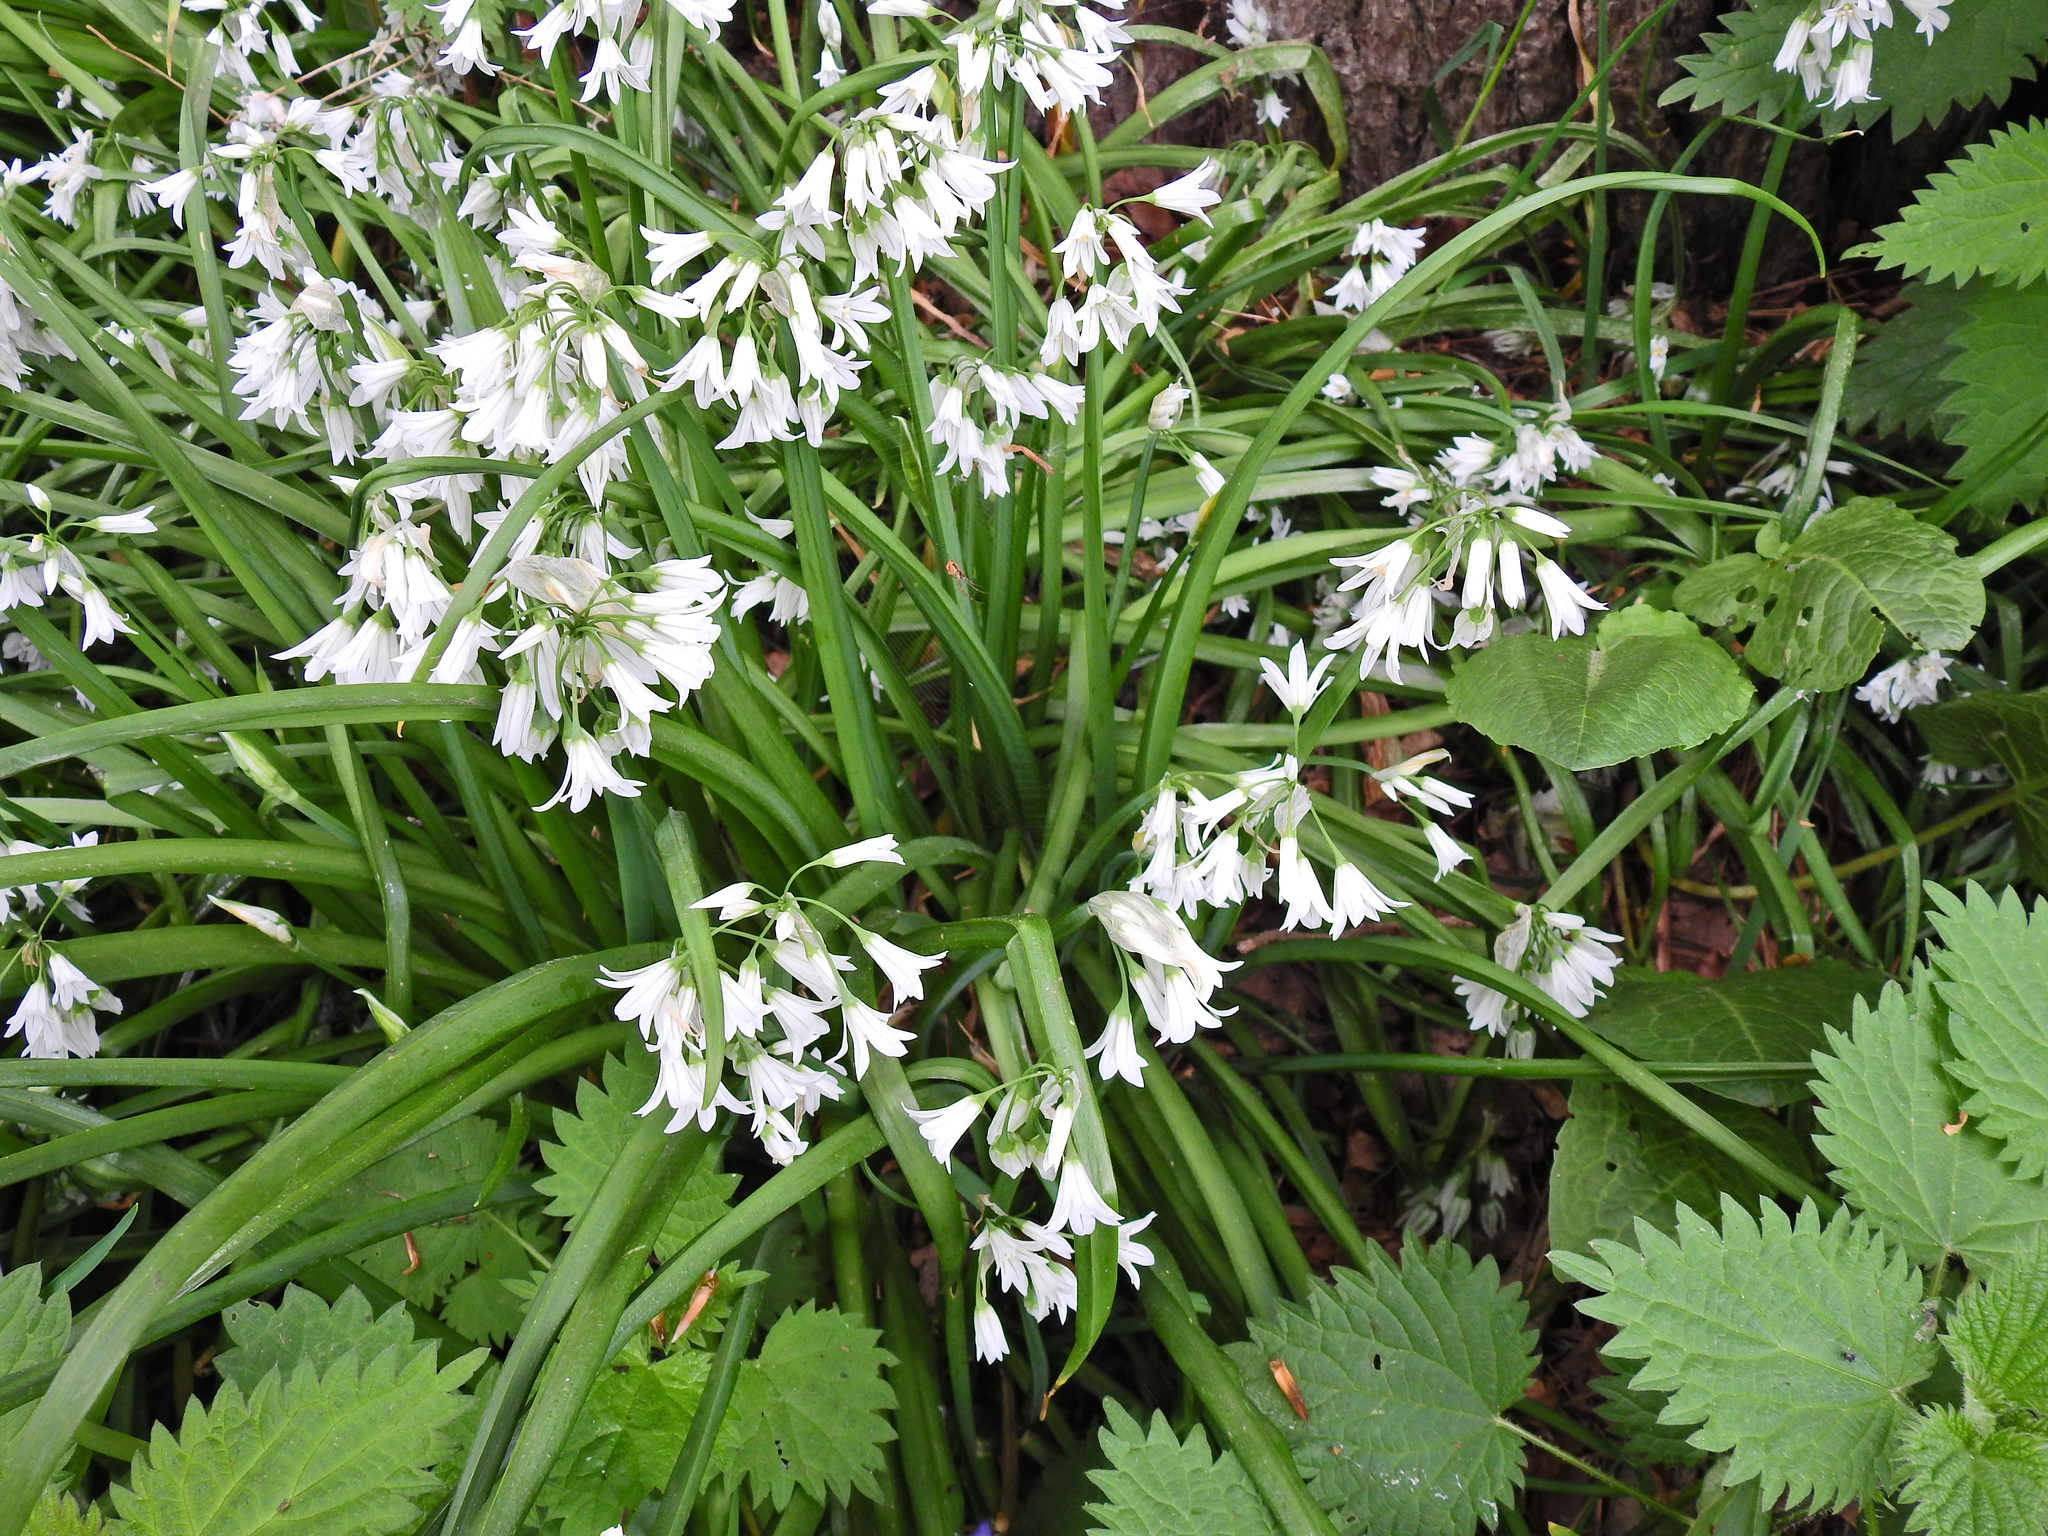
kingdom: Plantae
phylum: Tracheophyta
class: Liliopsida
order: Asparagales
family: Amaryllidaceae
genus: Allium
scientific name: Allium triquetrum
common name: Three-cornered garlic
